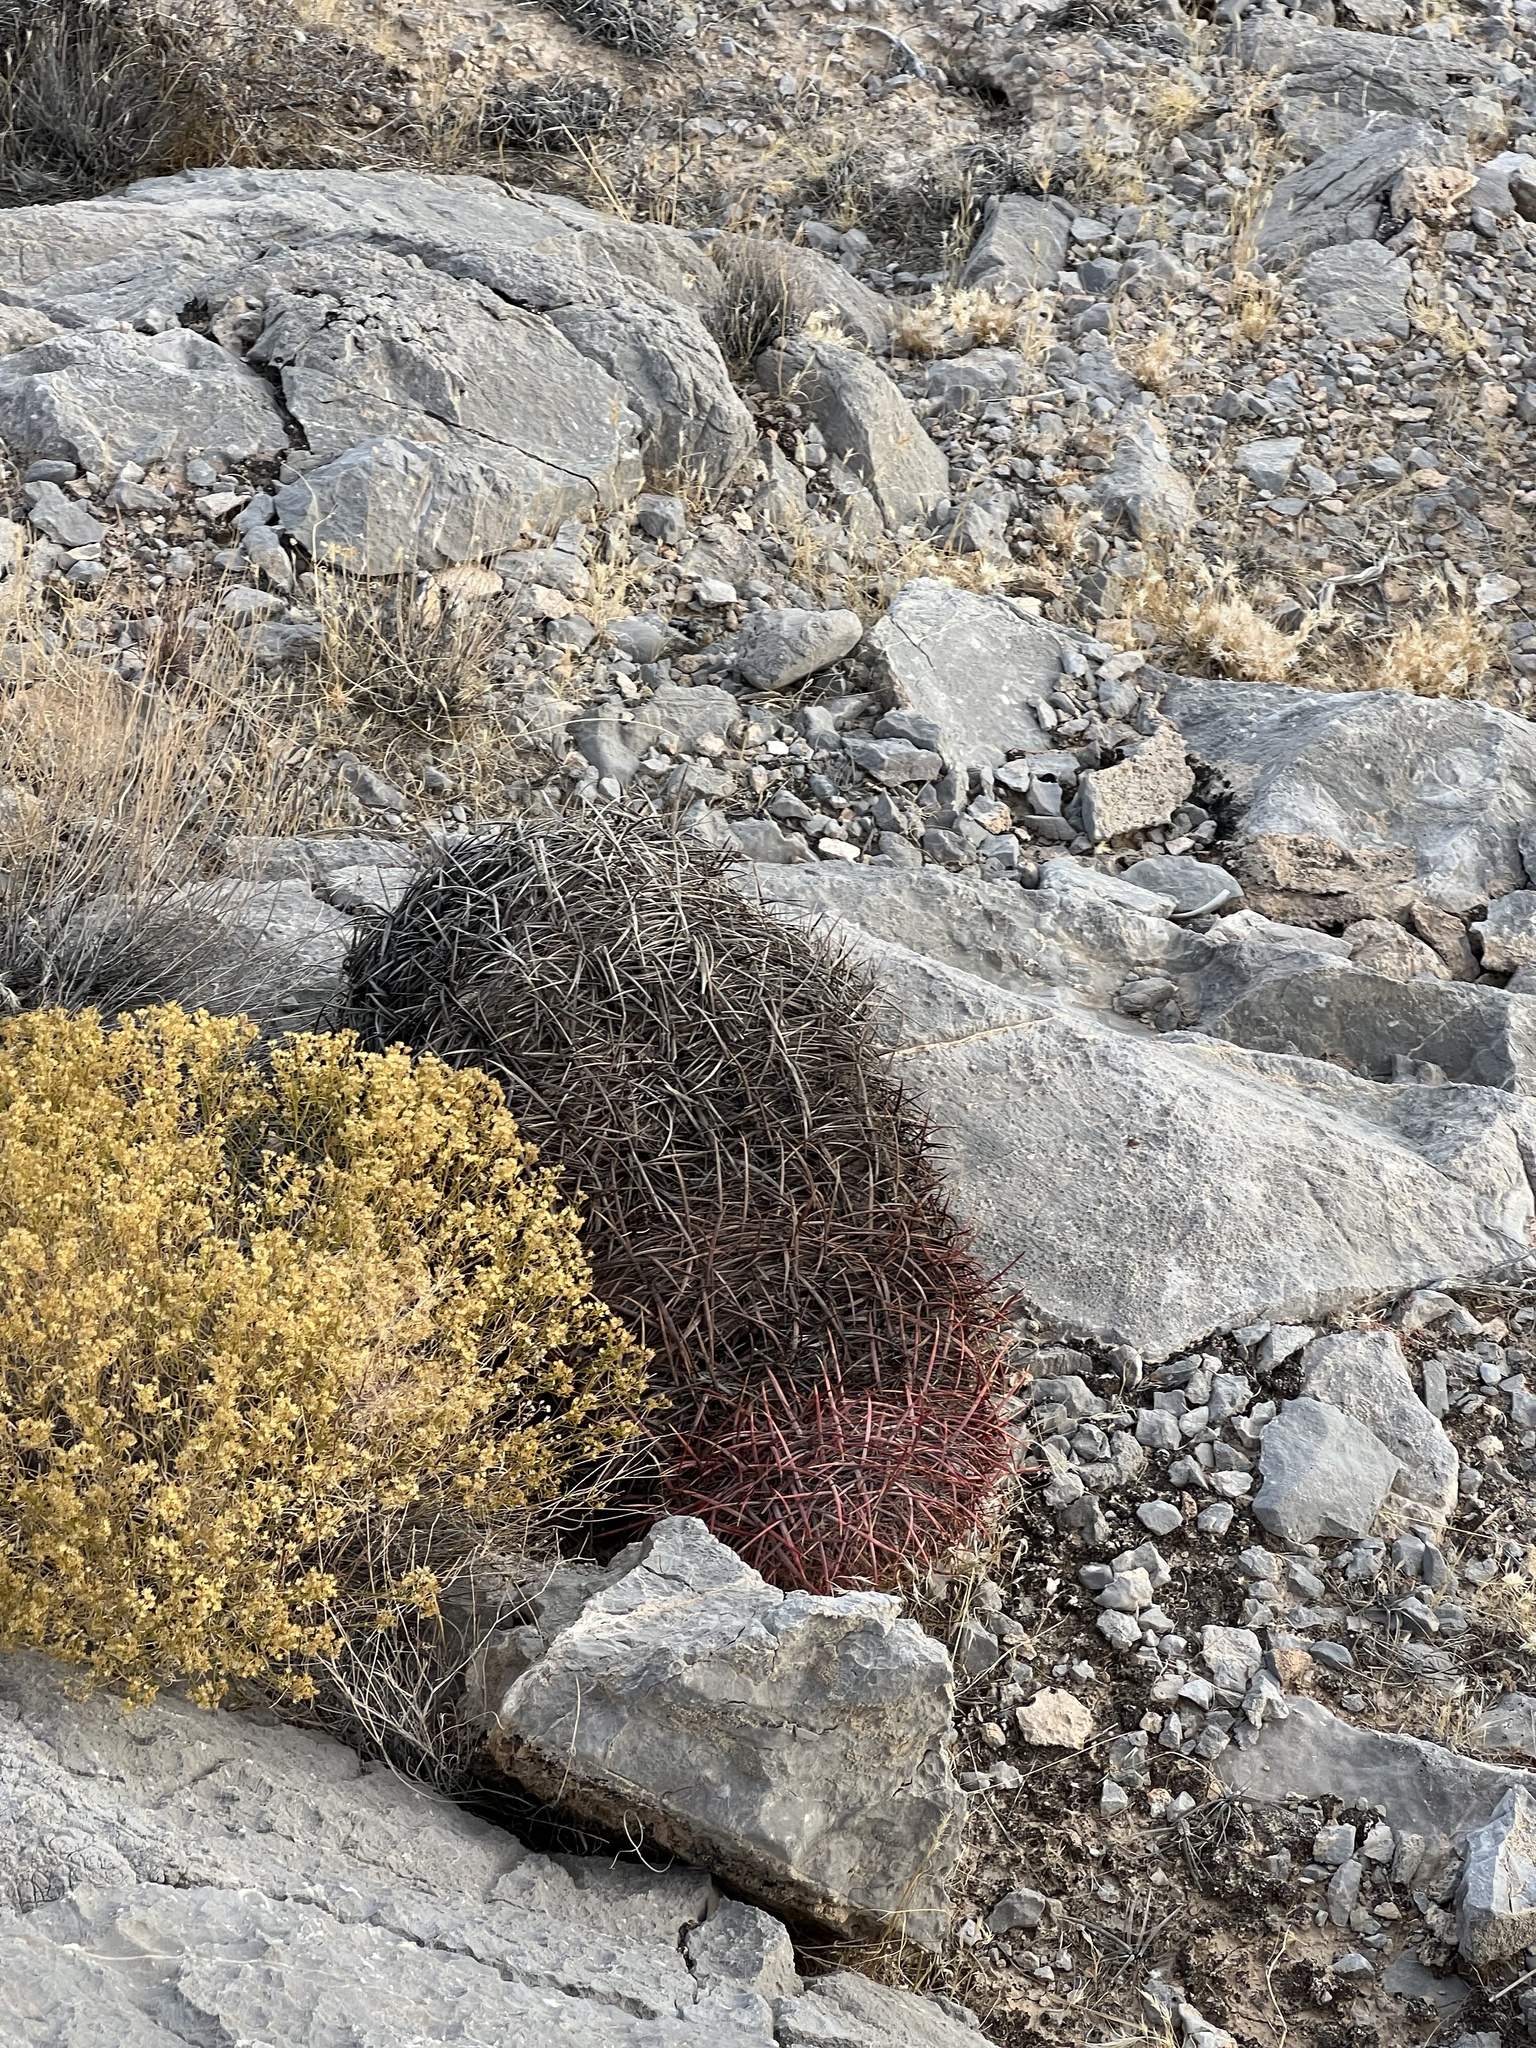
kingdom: Plantae
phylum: Tracheophyta
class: Magnoliopsida
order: Caryophyllales
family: Cactaceae
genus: Ferocactus
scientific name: Ferocactus cylindraceus
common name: California barrel cactus
